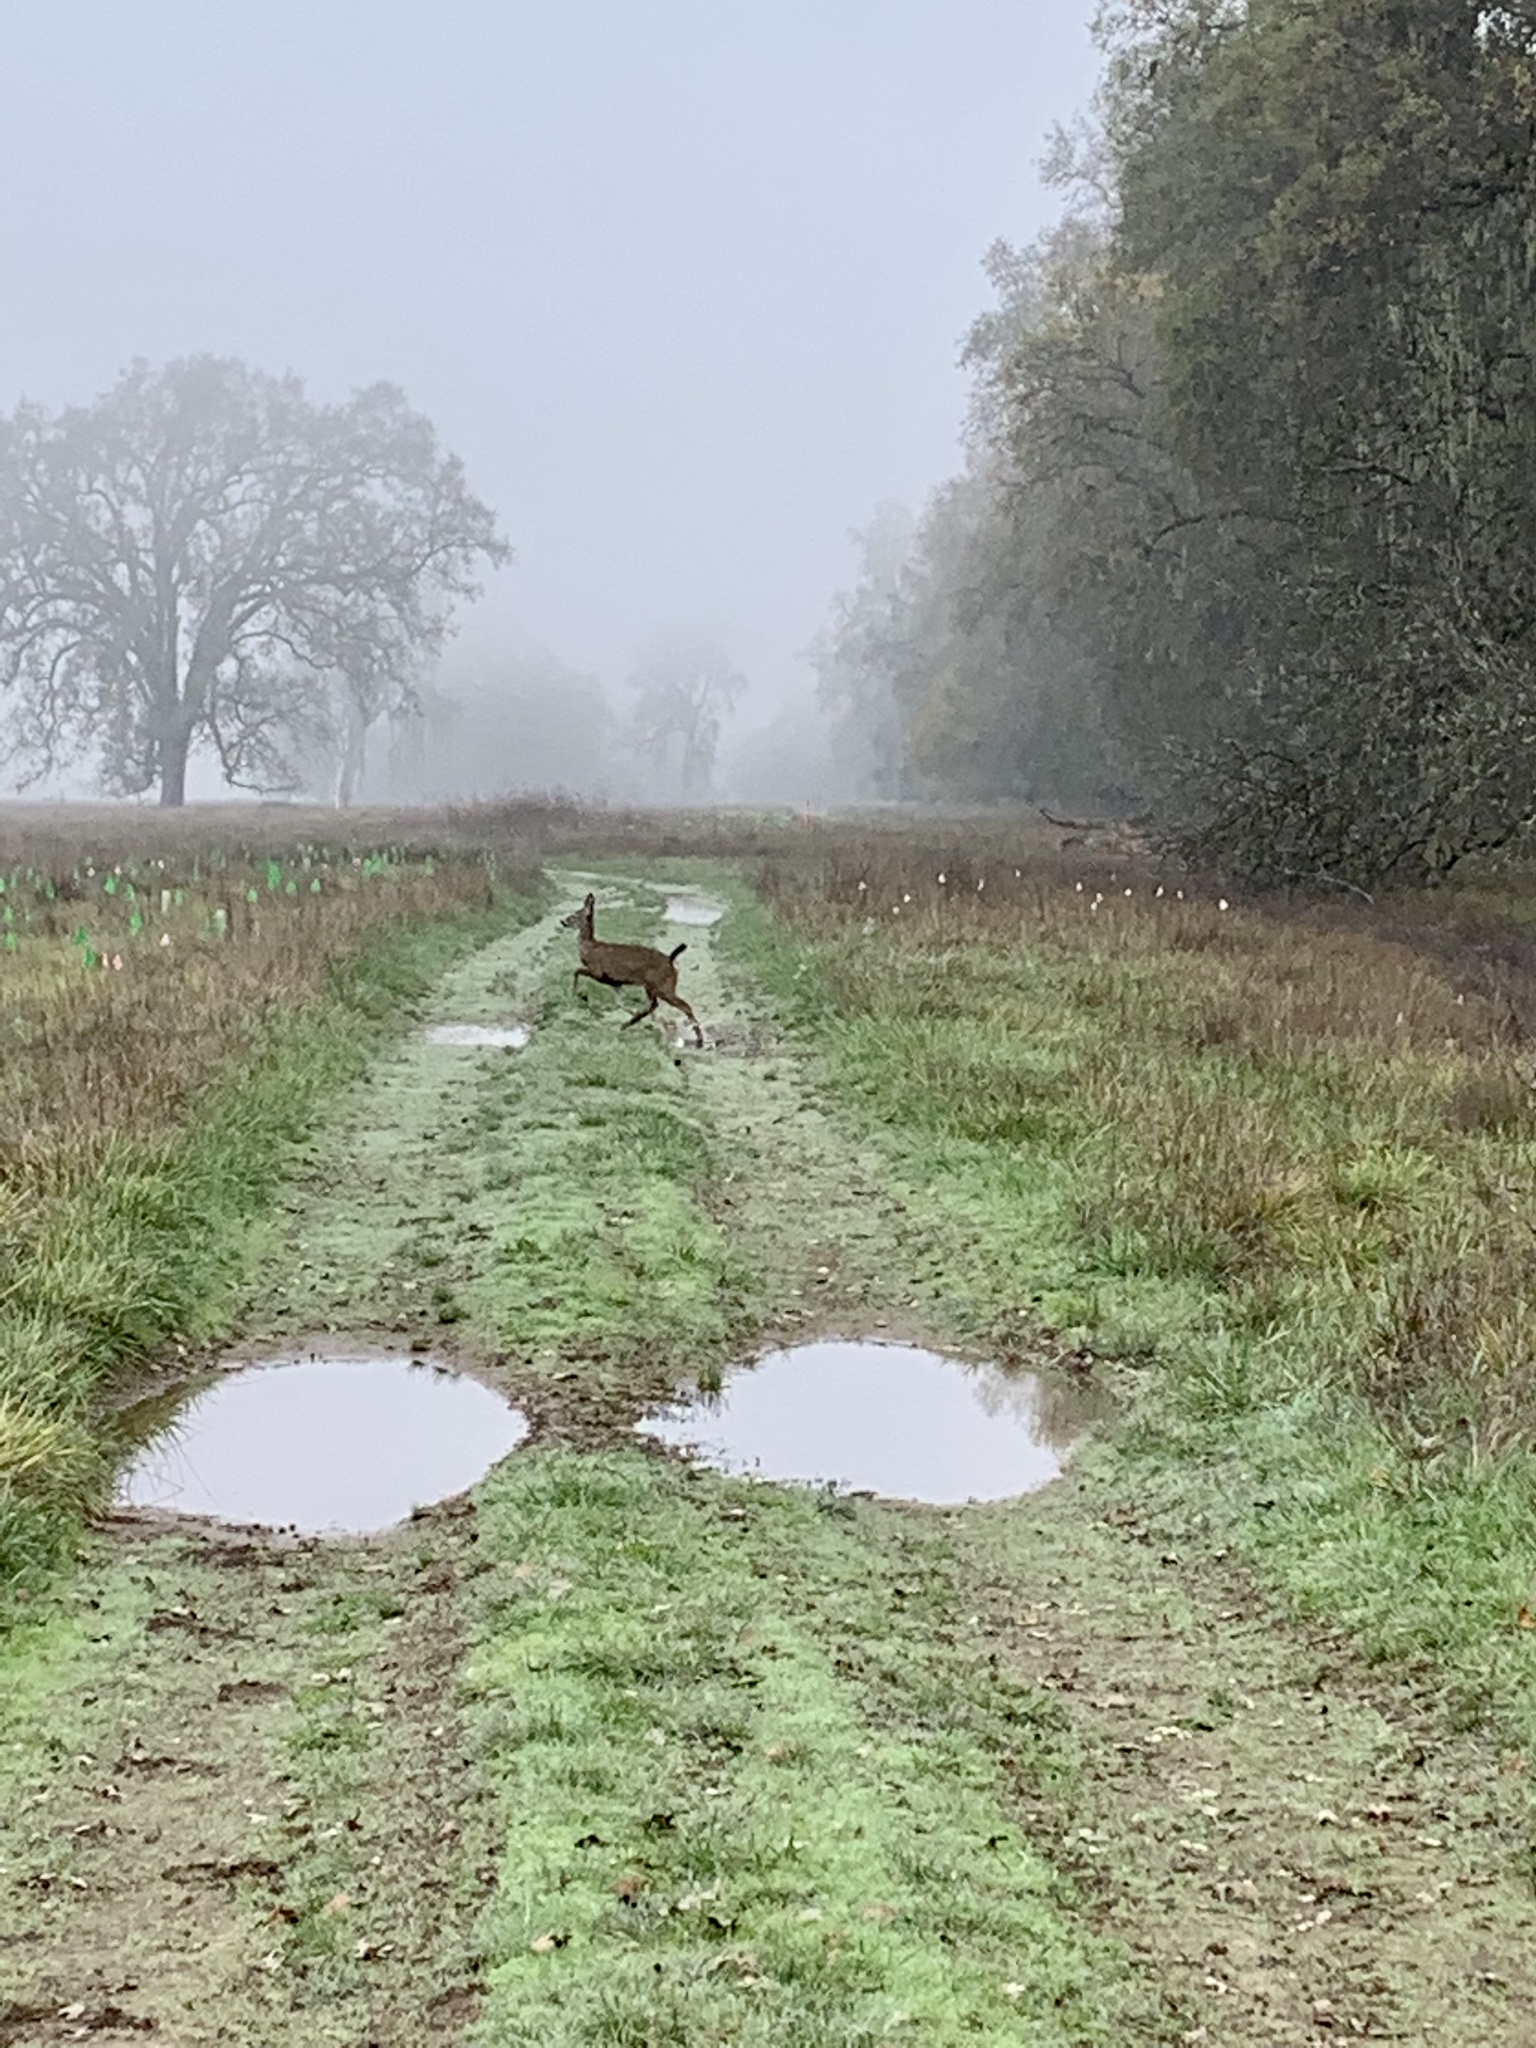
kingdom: Animalia
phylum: Chordata
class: Mammalia
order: Artiodactyla
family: Cervidae
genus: Odocoileus
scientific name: Odocoileus hemionus
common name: Mule deer
